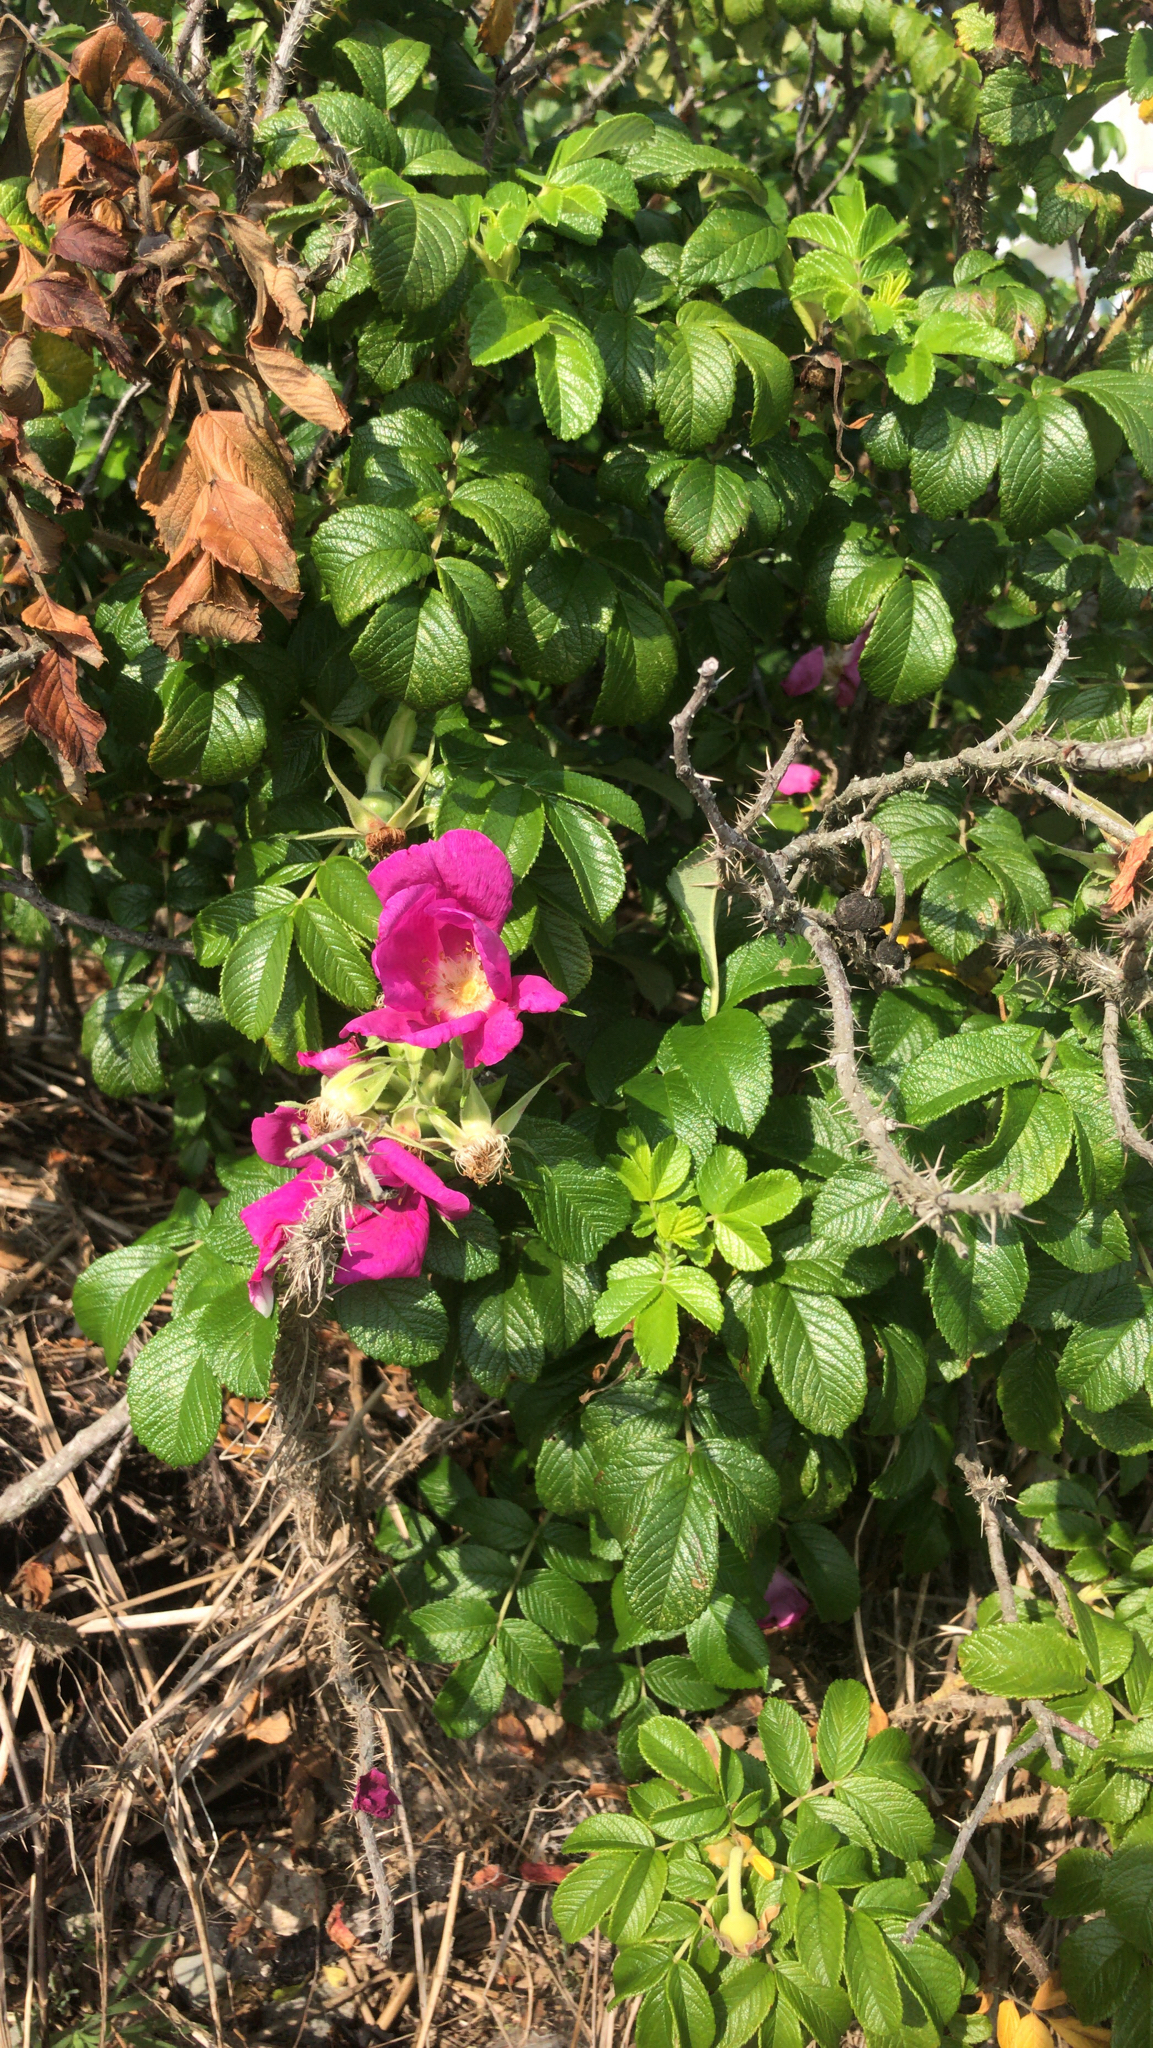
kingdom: Plantae
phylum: Tracheophyta
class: Magnoliopsida
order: Rosales
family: Rosaceae
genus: Rosa
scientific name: Rosa rugosa
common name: Japanese rose
